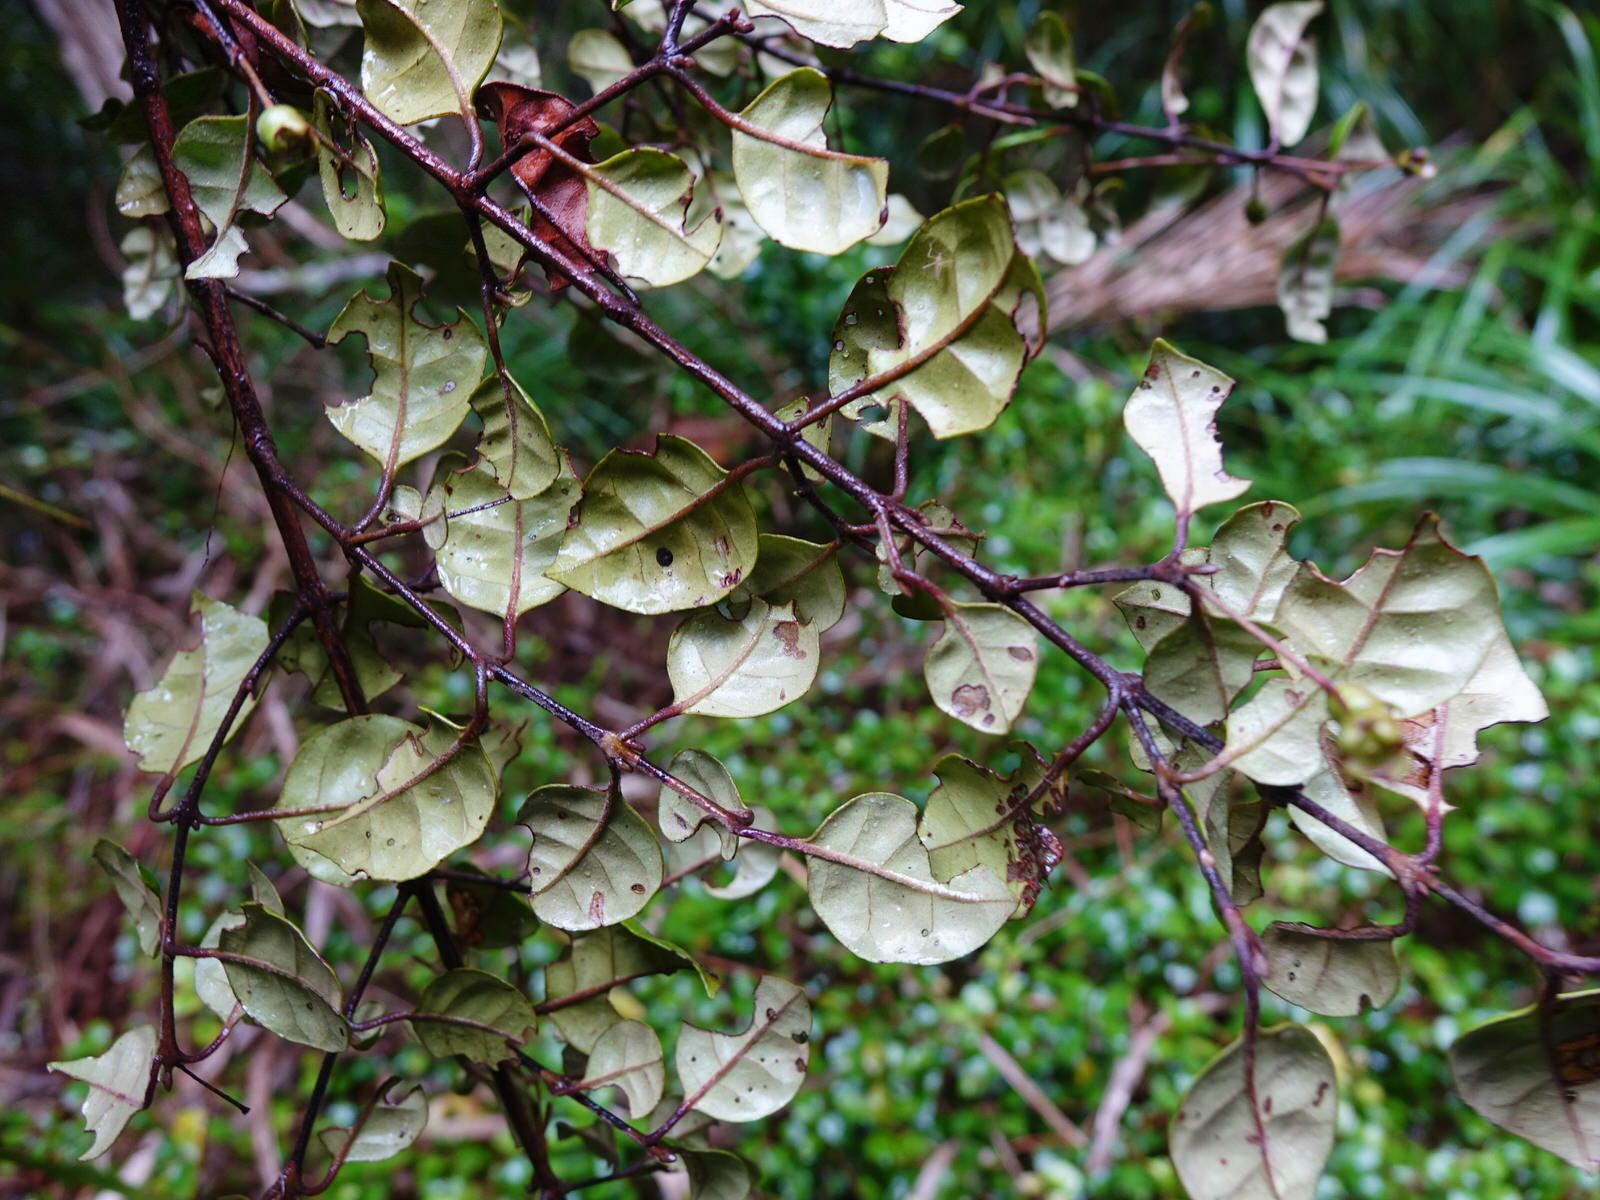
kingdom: Plantae
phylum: Tracheophyta
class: Magnoliopsida
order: Myrtales
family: Myrtaceae
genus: Lophomyrtus
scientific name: Lophomyrtus bullata
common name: Rama rama
